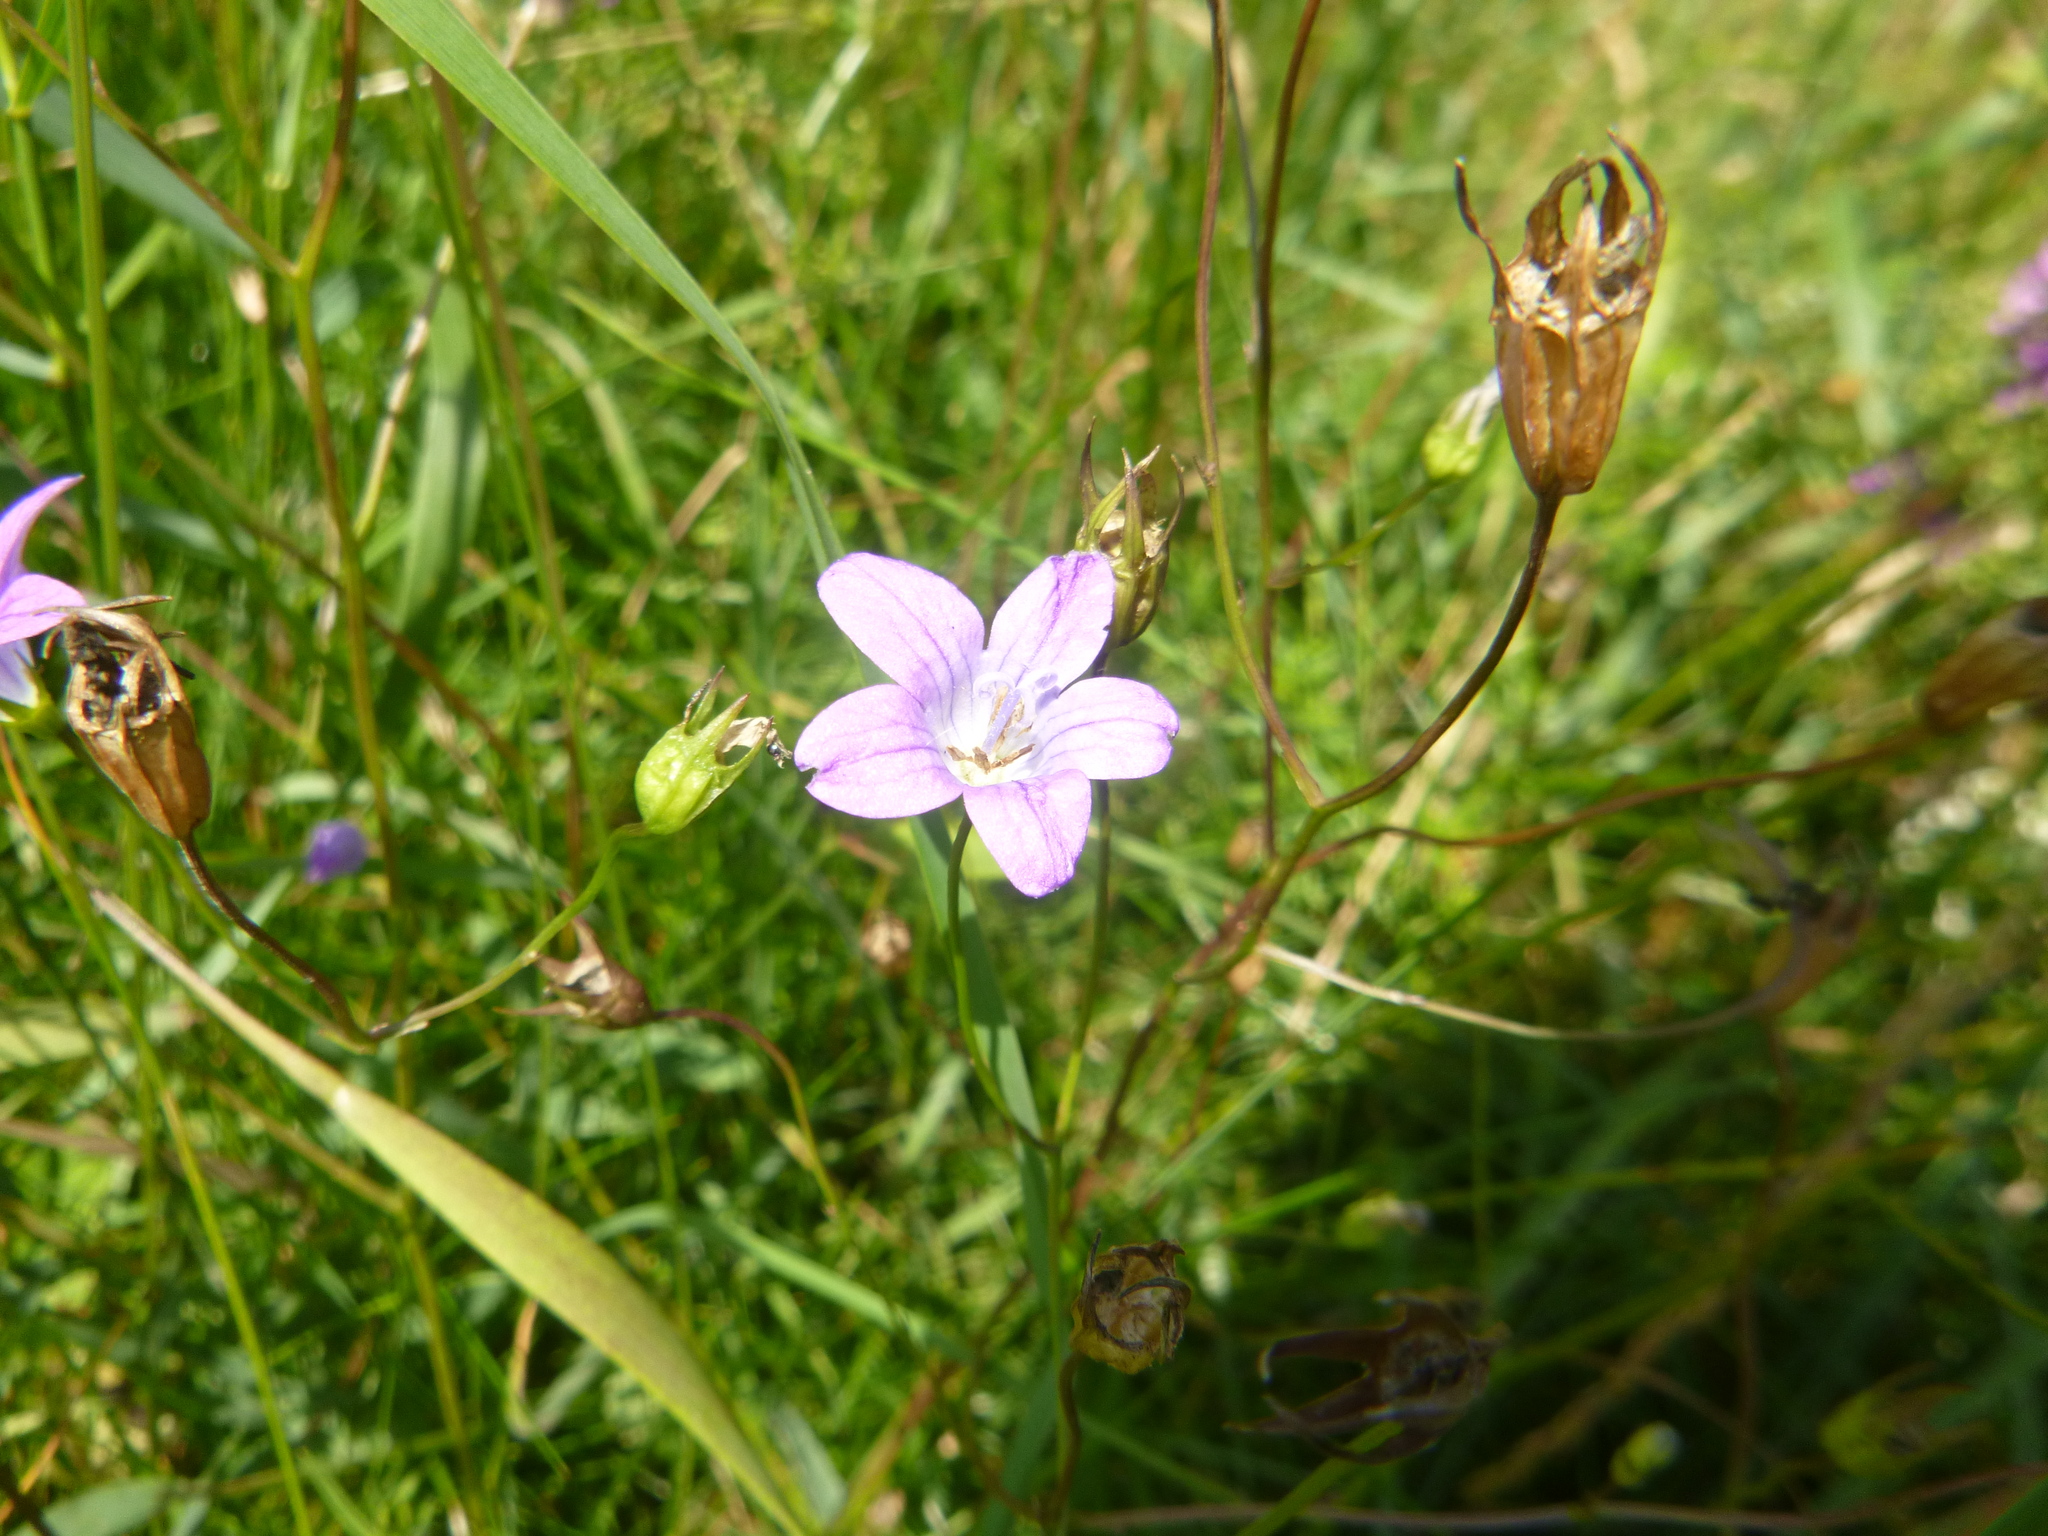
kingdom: Plantae
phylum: Tracheophyta
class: Magnoliopsida
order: Asterales
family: Campanulaceae
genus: Campanula
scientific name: Campanula patula
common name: Spreading bellflower
